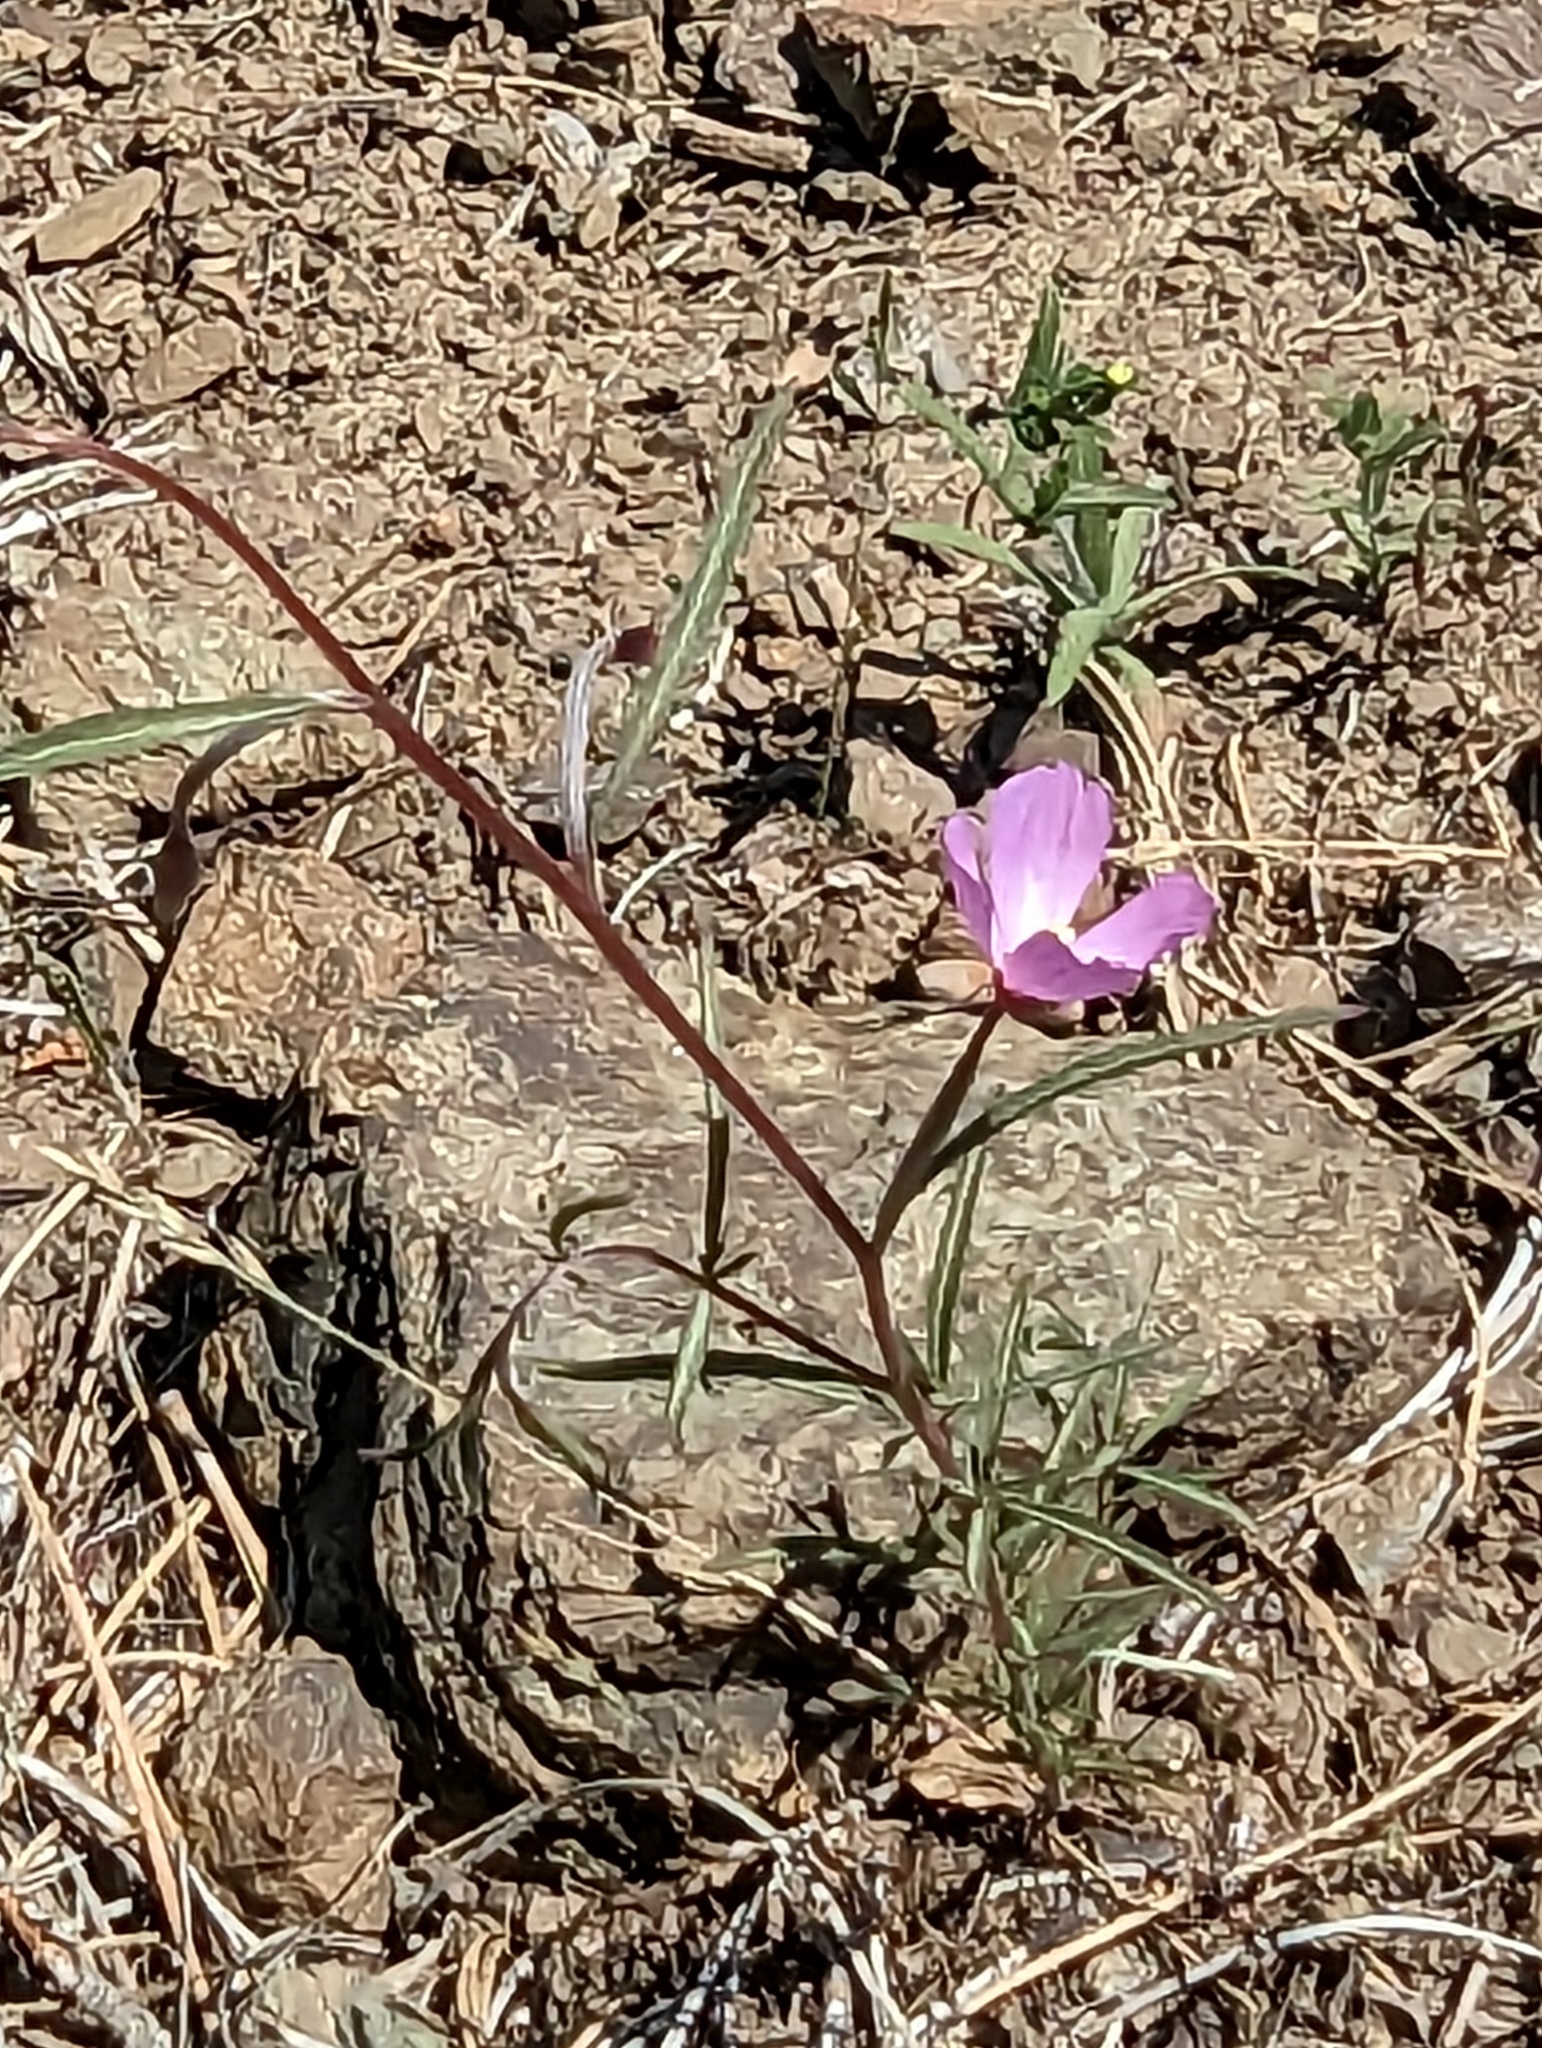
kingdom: Plantae
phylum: Tracheophyta
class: Magnoliopsida
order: Myrtales
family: Onagraceae
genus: Clarkia
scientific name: Clarkia gracilis
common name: Graceful clarkia
